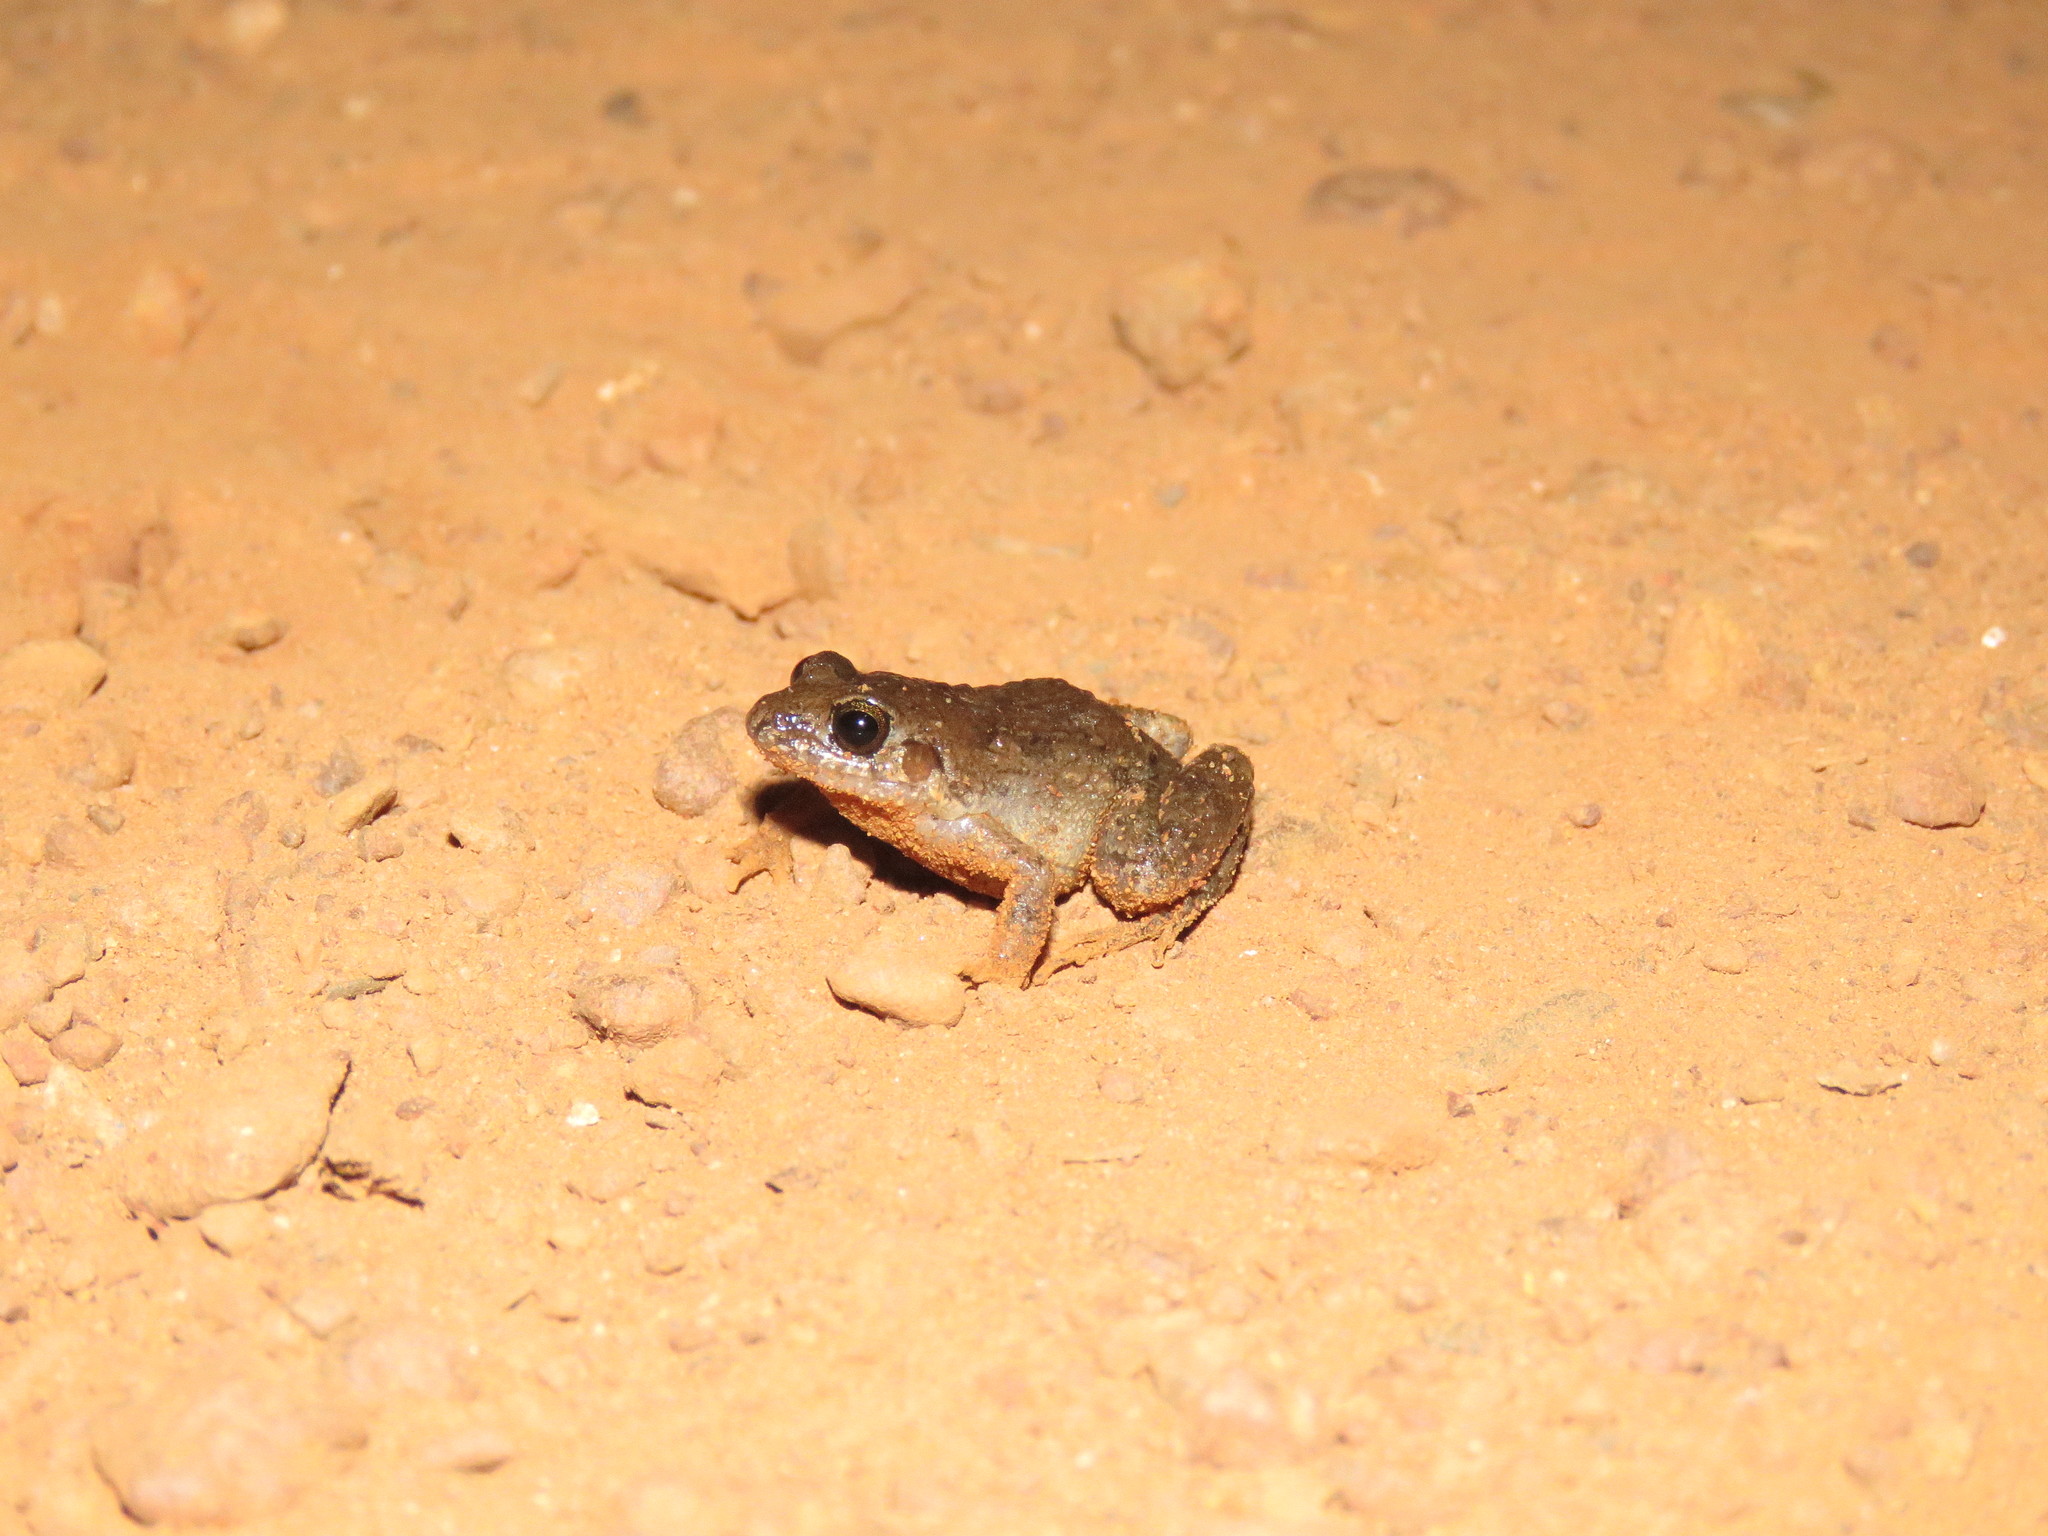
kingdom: Animalia
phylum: Chordata
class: Amphibia
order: Anura
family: Leptodactylidae
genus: Leptodactylus
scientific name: Leptodactylus podicipinus
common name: Pointedbelly frog
